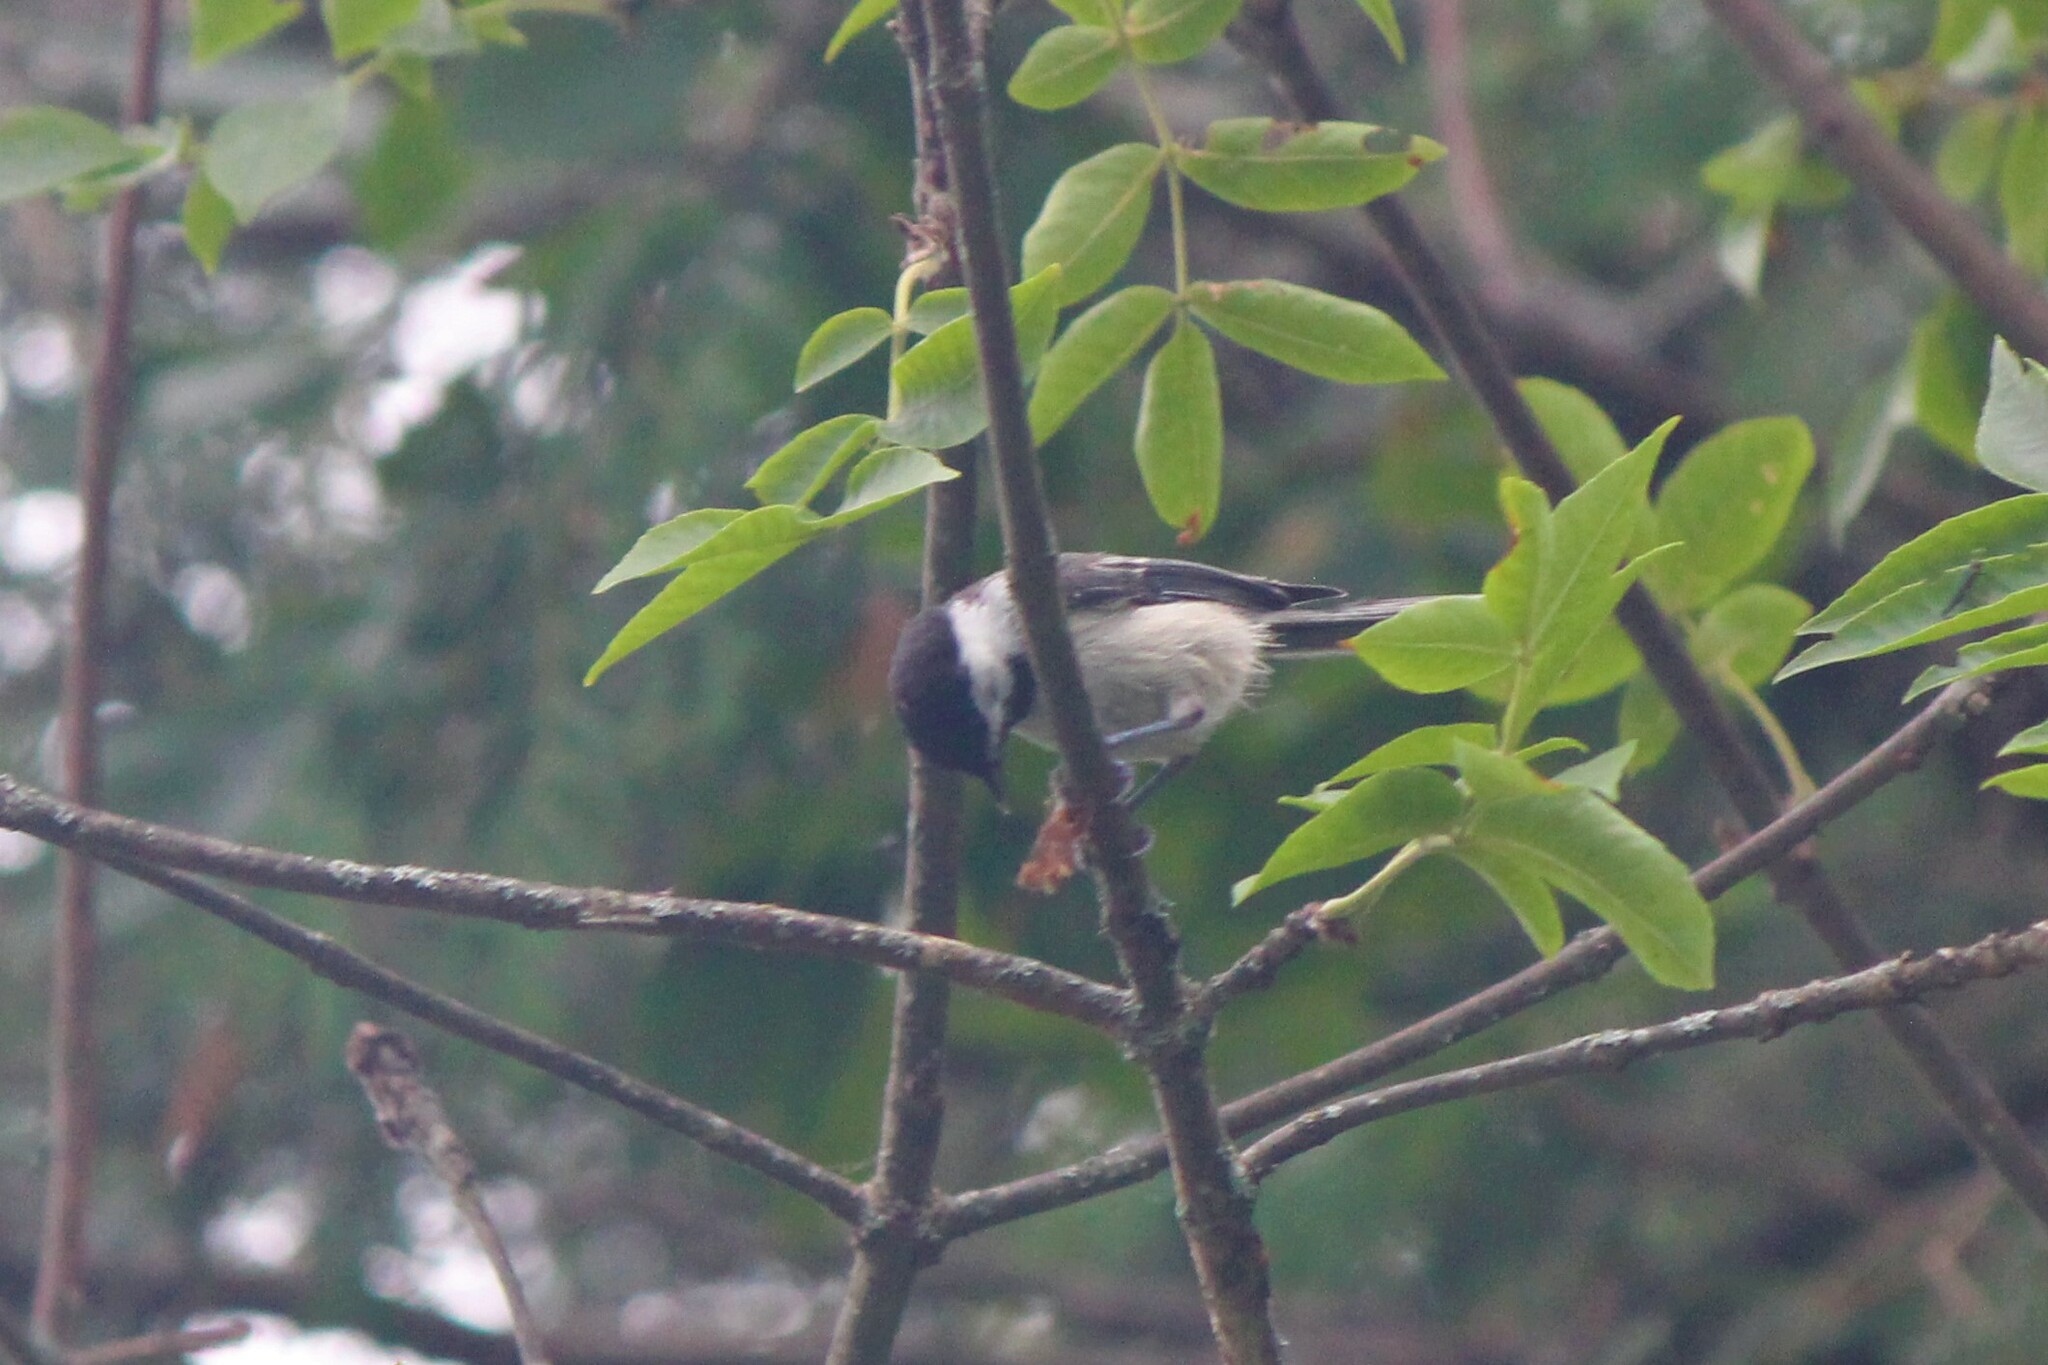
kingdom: Animalia
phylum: Chordata
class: Aves
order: Passeriformes
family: Paridae
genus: Poecile
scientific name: Poecile atricapillus
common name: Black-capped chickadee
